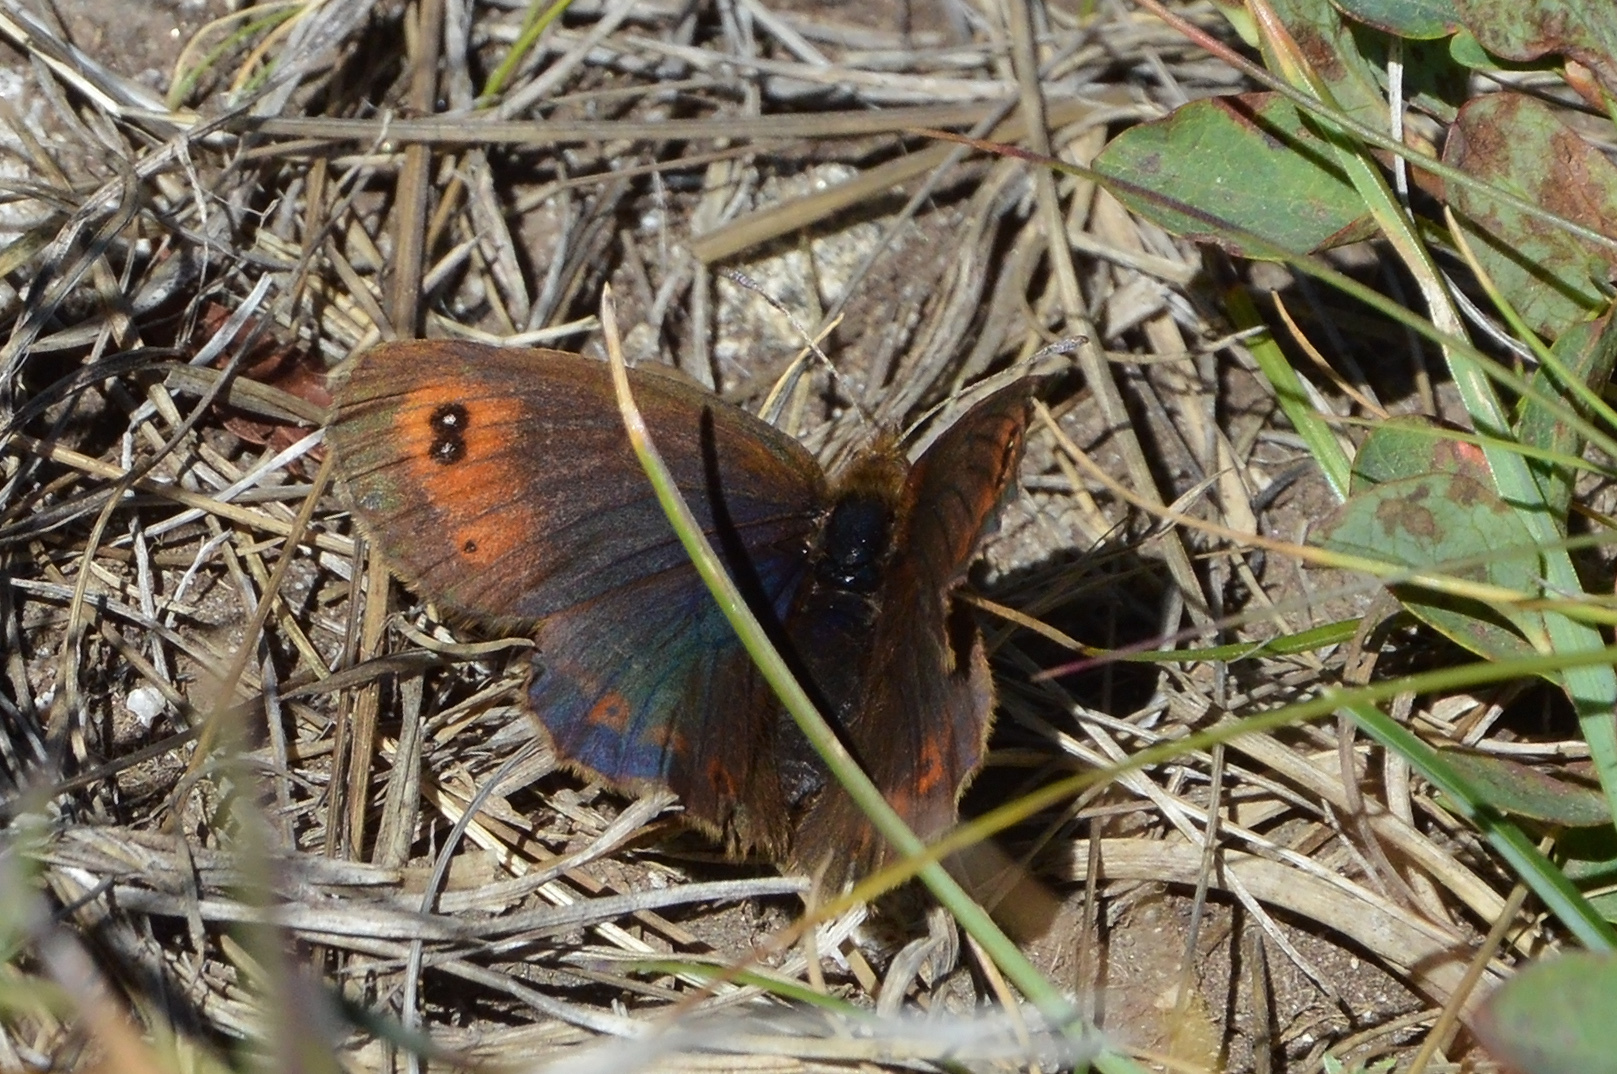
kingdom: Animalia
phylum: Arthropoda
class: Insecta
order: Lepidoptera
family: Nymphalidae
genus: Erebia
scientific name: Erebia pronoe
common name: Water ringlet
